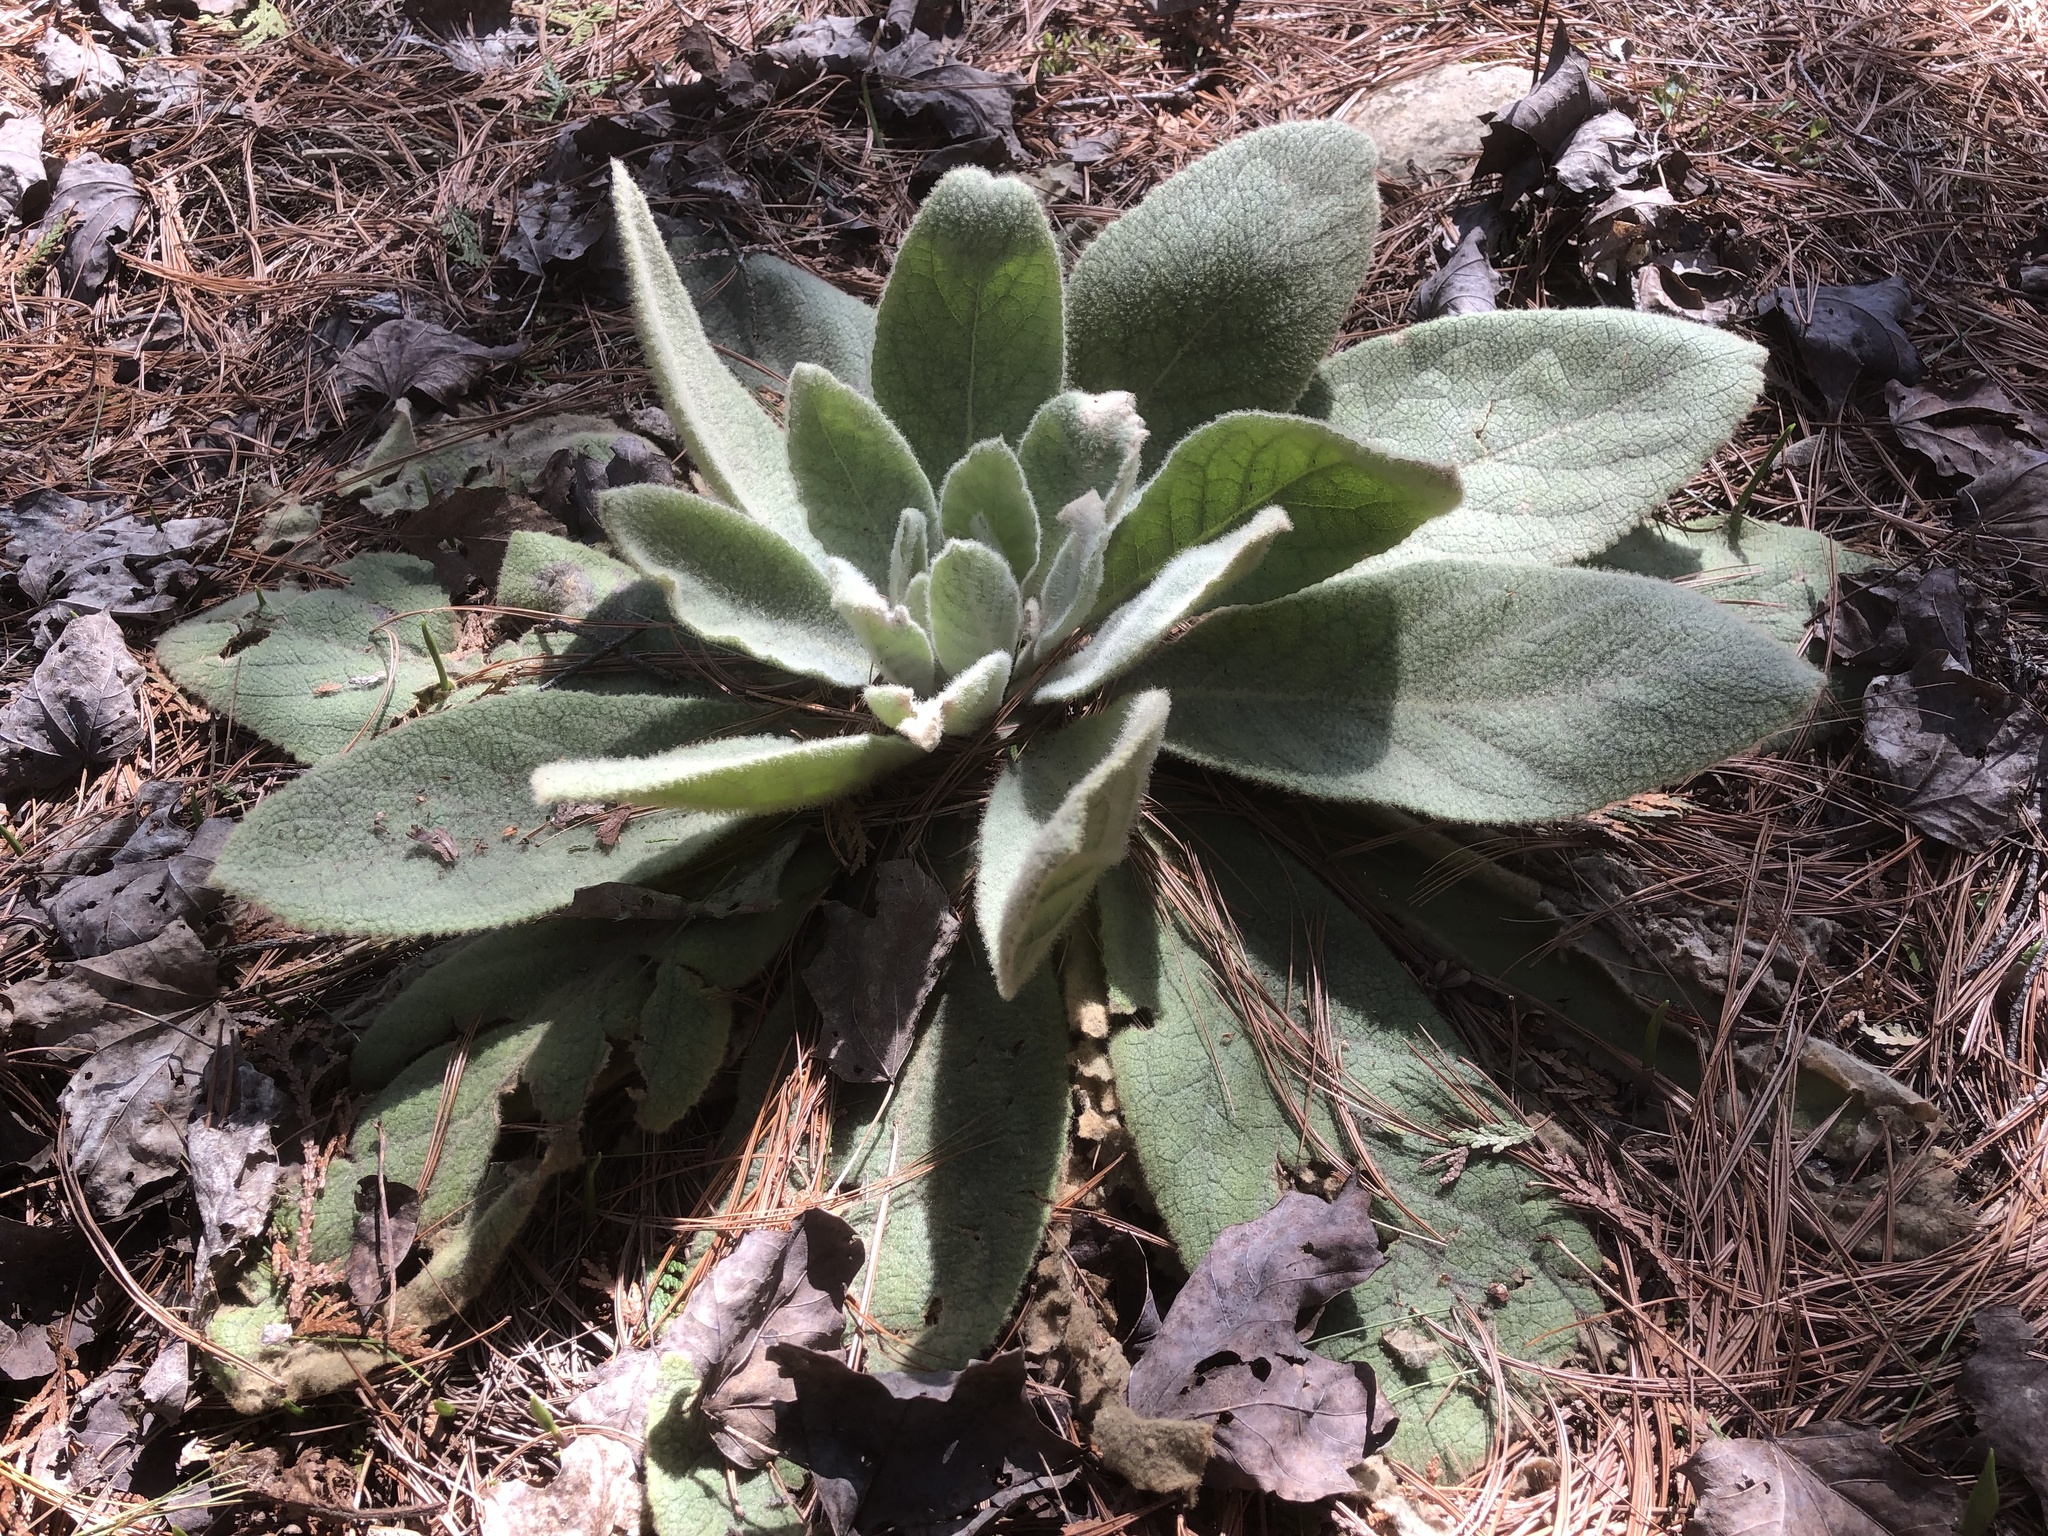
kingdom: Plantae
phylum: Tracheophyta
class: Magnoliopsida
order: Lamiales
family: Scrophulariaceae
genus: Verbascum
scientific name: Verbascum thapsus
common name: Common mullein
